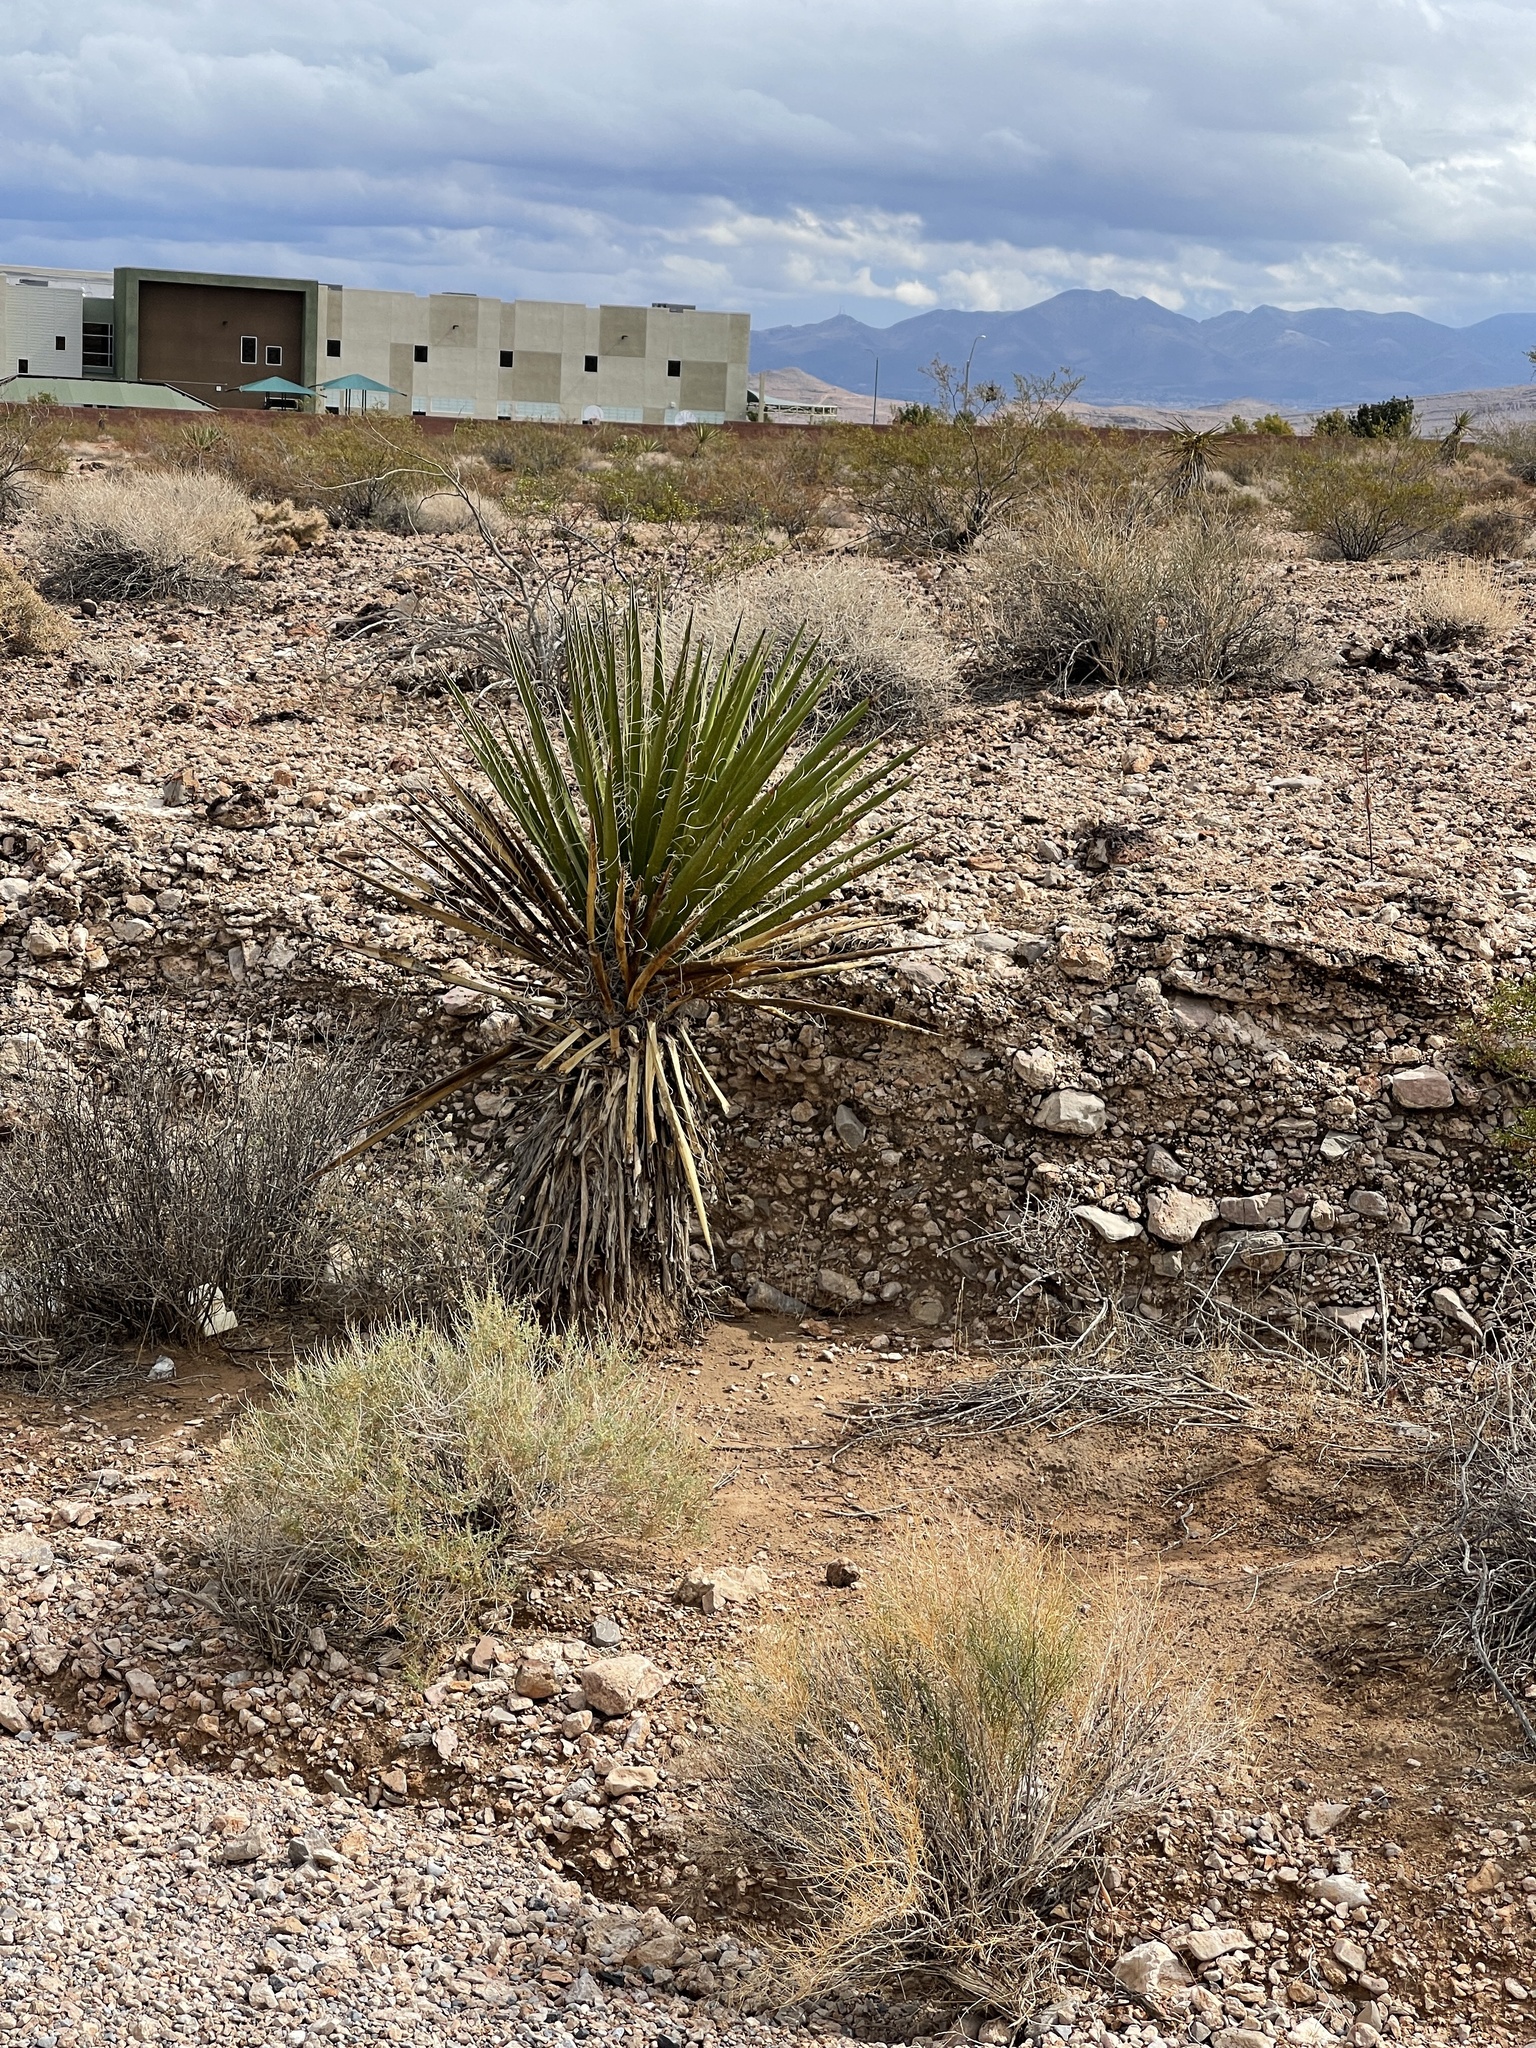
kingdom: Plantae
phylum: Tracheophyta
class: Liliopsida
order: Asparagales
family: Asparagaceae
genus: Yucca
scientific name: Yucca schidigera
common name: Mojave yucca
